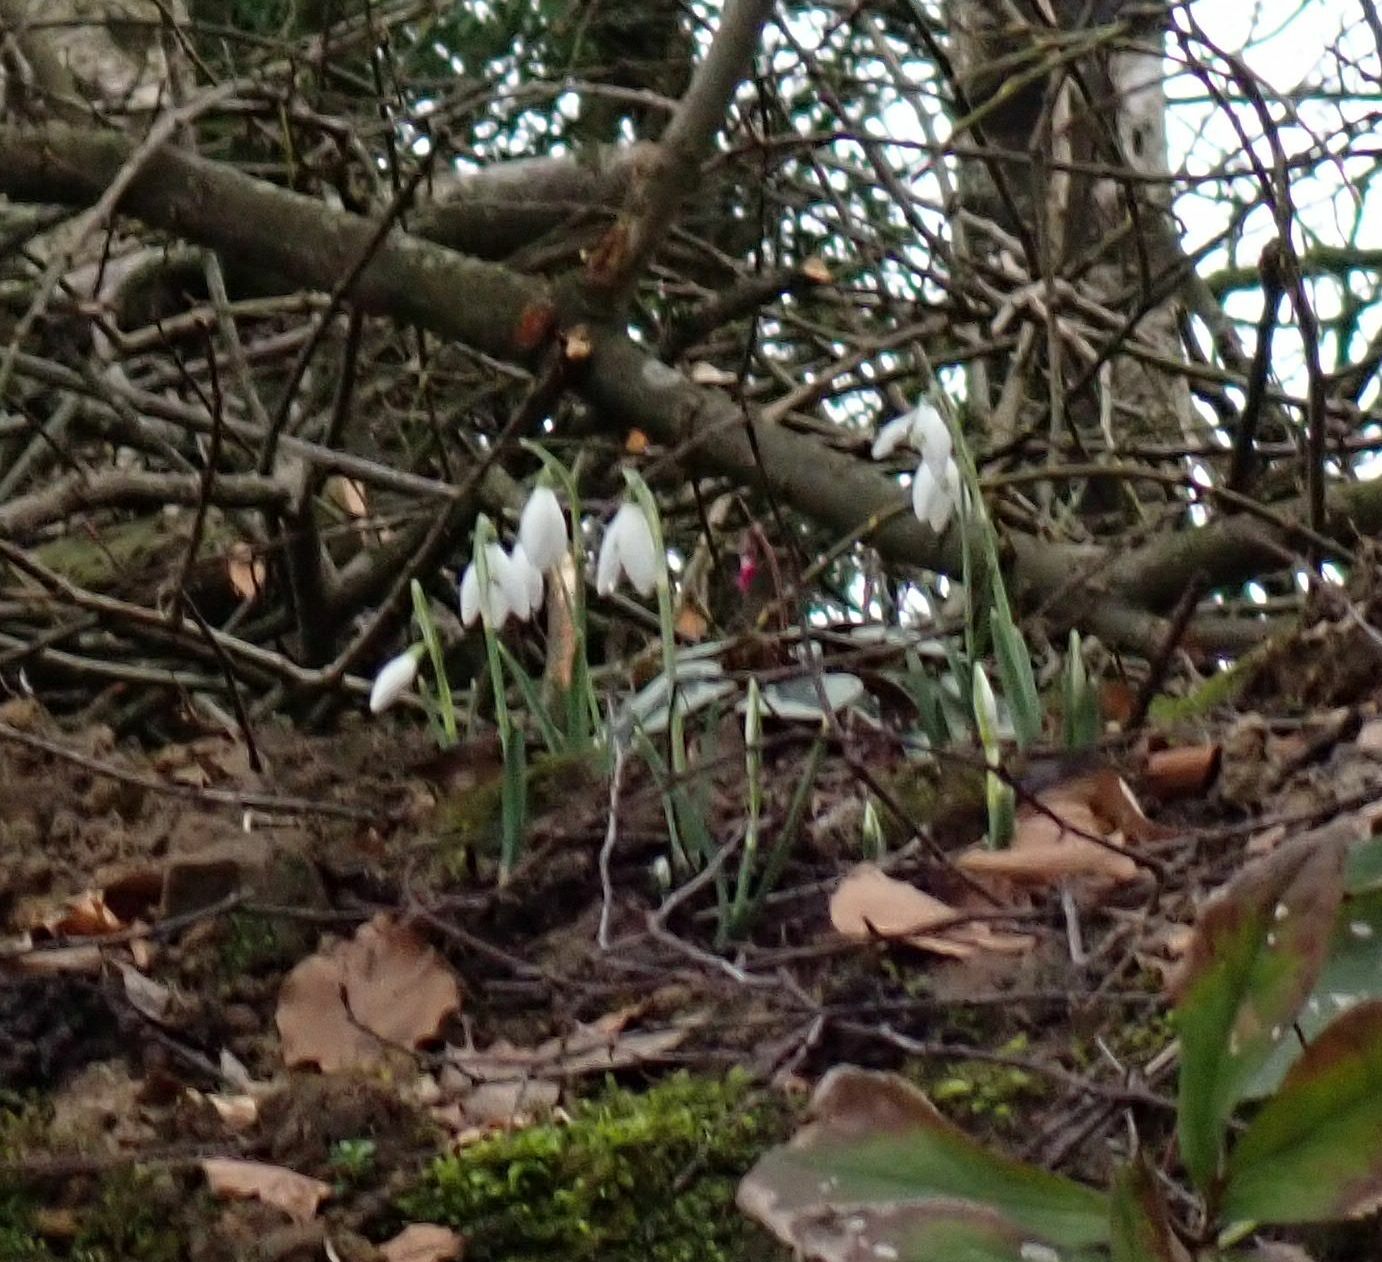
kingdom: Plantae
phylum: Tracheophyta
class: Liliopsida
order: Asparagales
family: Amaryllidaceae
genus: Galanthus
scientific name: Galanthus nivalis
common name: Snowdrop
